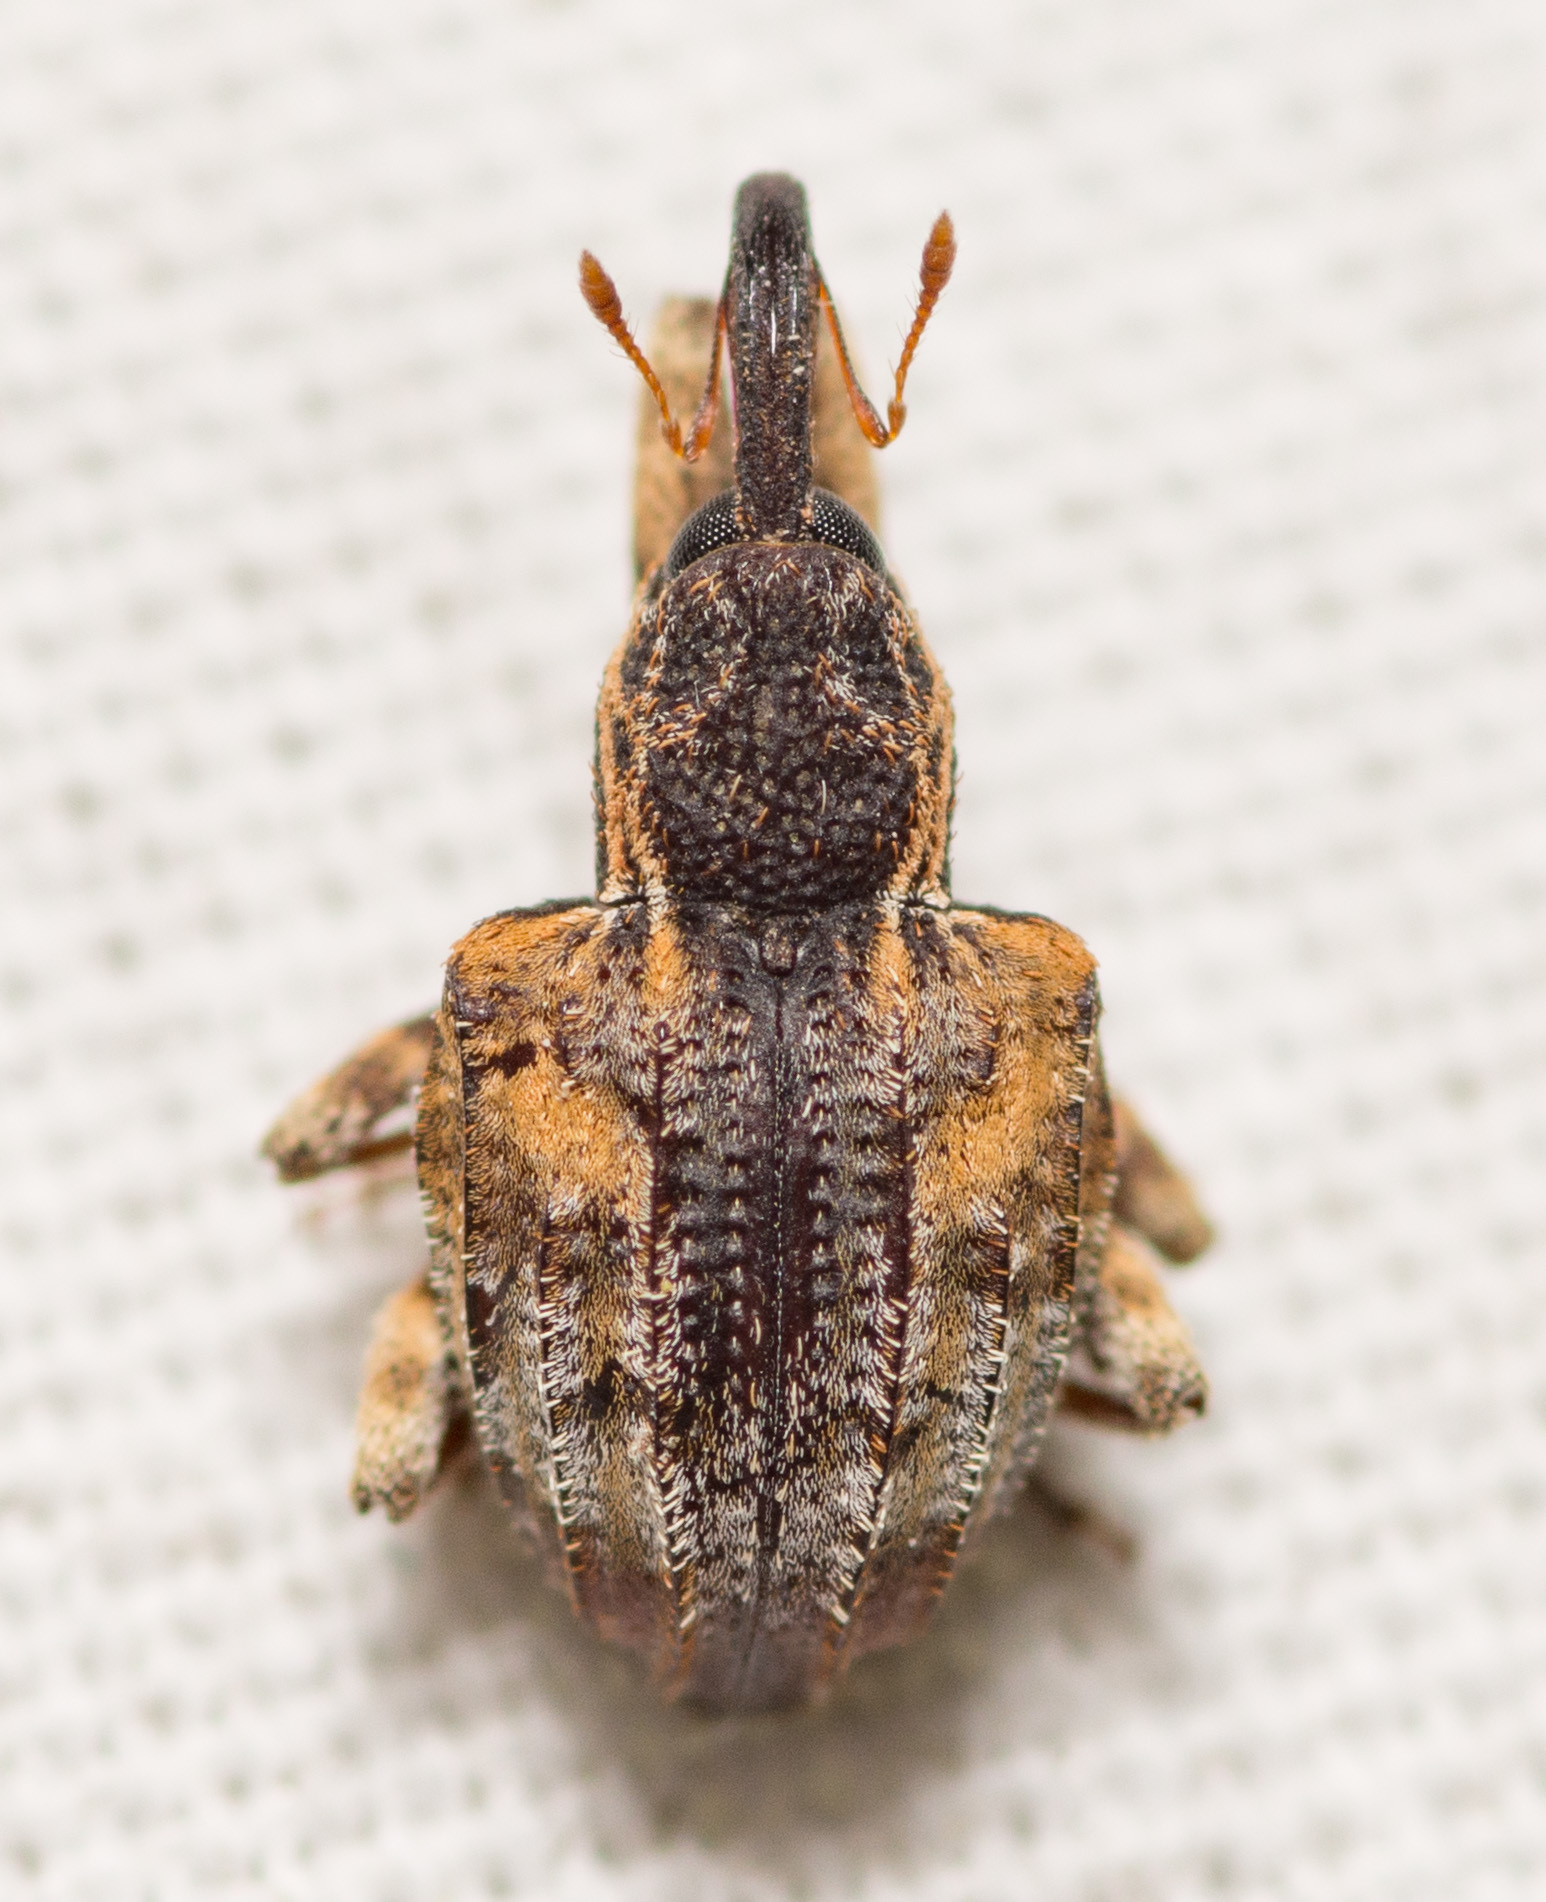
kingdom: Animalia
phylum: Arthropoda
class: Insecta
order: Coleoptera
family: Curculionidae
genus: Conotrachelus
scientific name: Conotrachelus anaglypticus
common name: Cambium curculio
